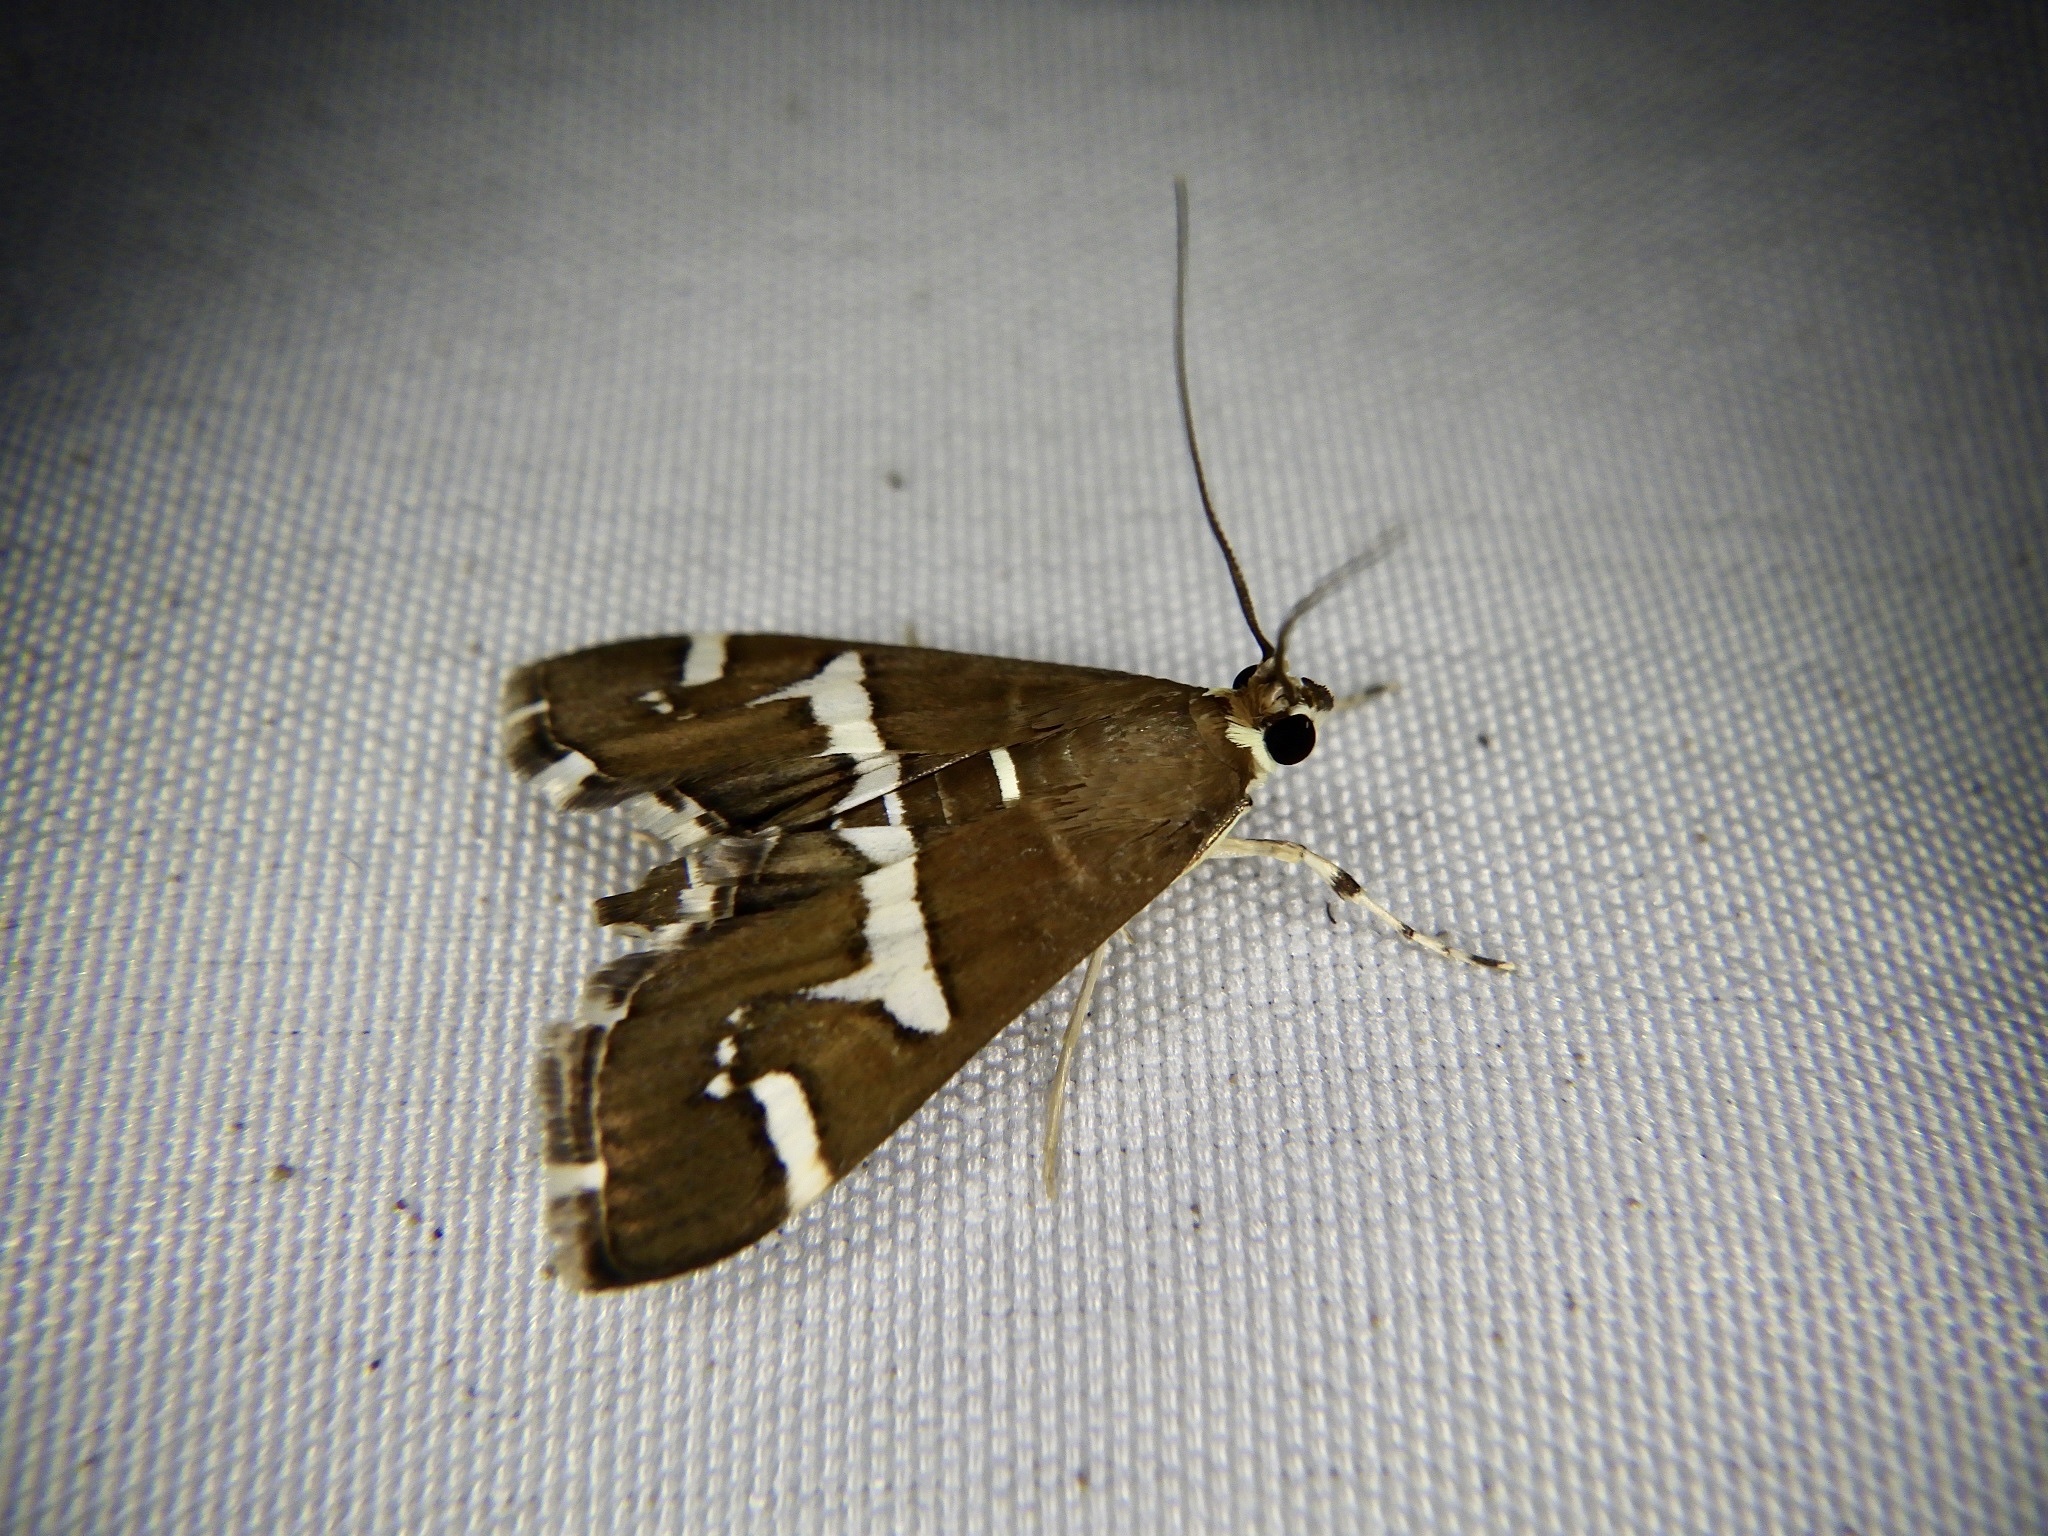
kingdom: Animalia
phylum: Arthropoda
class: Insecta
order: Lepidoptera
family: Crambidae
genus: Spoladea
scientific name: Spoladea recurvalis
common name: Beet webworm moth
